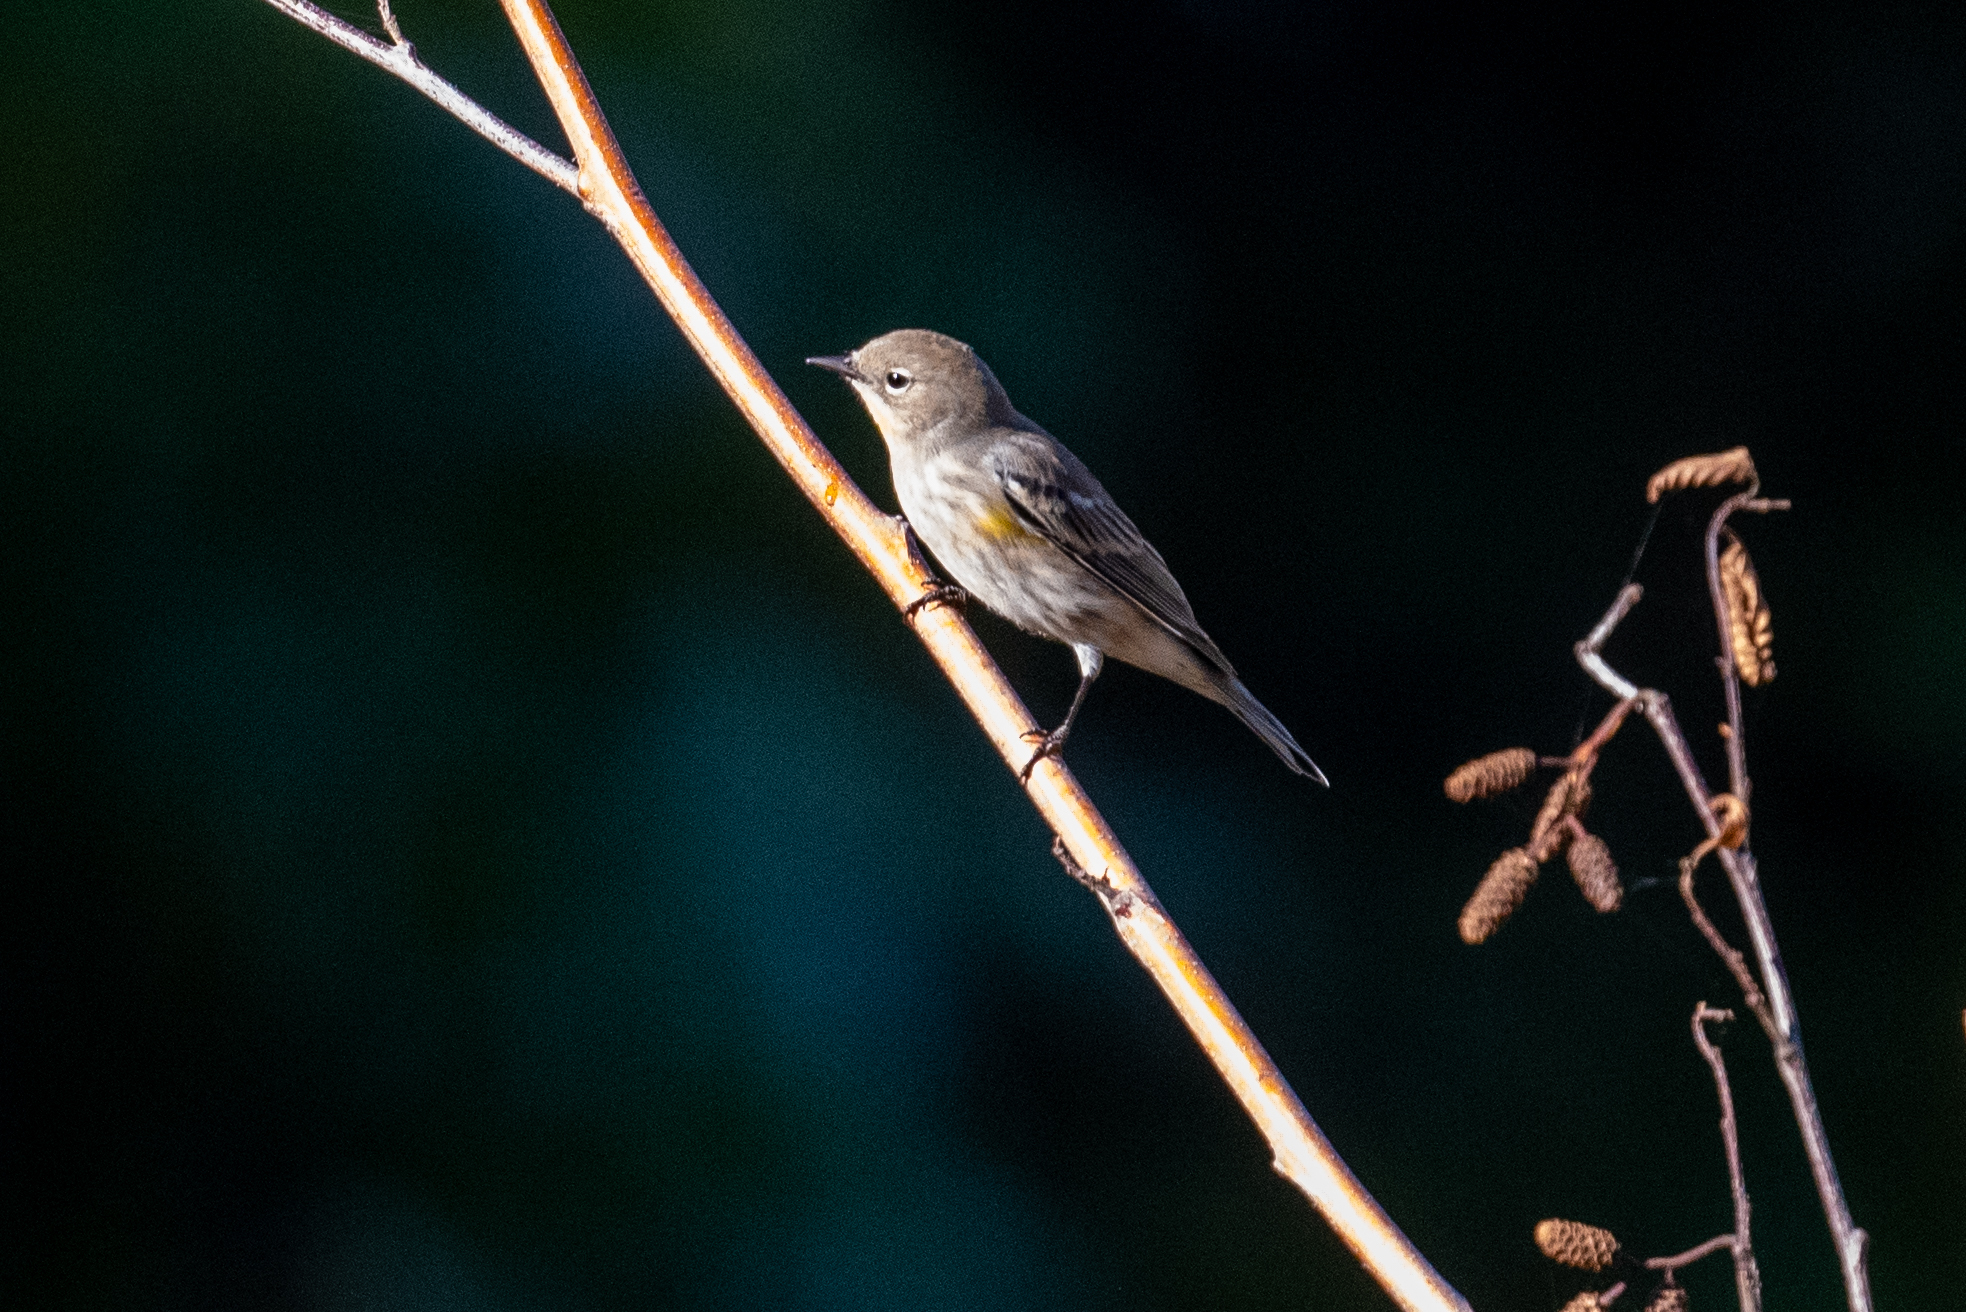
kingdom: Animalia
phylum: Chordata
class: Aves
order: Passeriformes
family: Parulidae
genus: Setophaga
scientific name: Setophaga coronata
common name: Myrtle warbler
